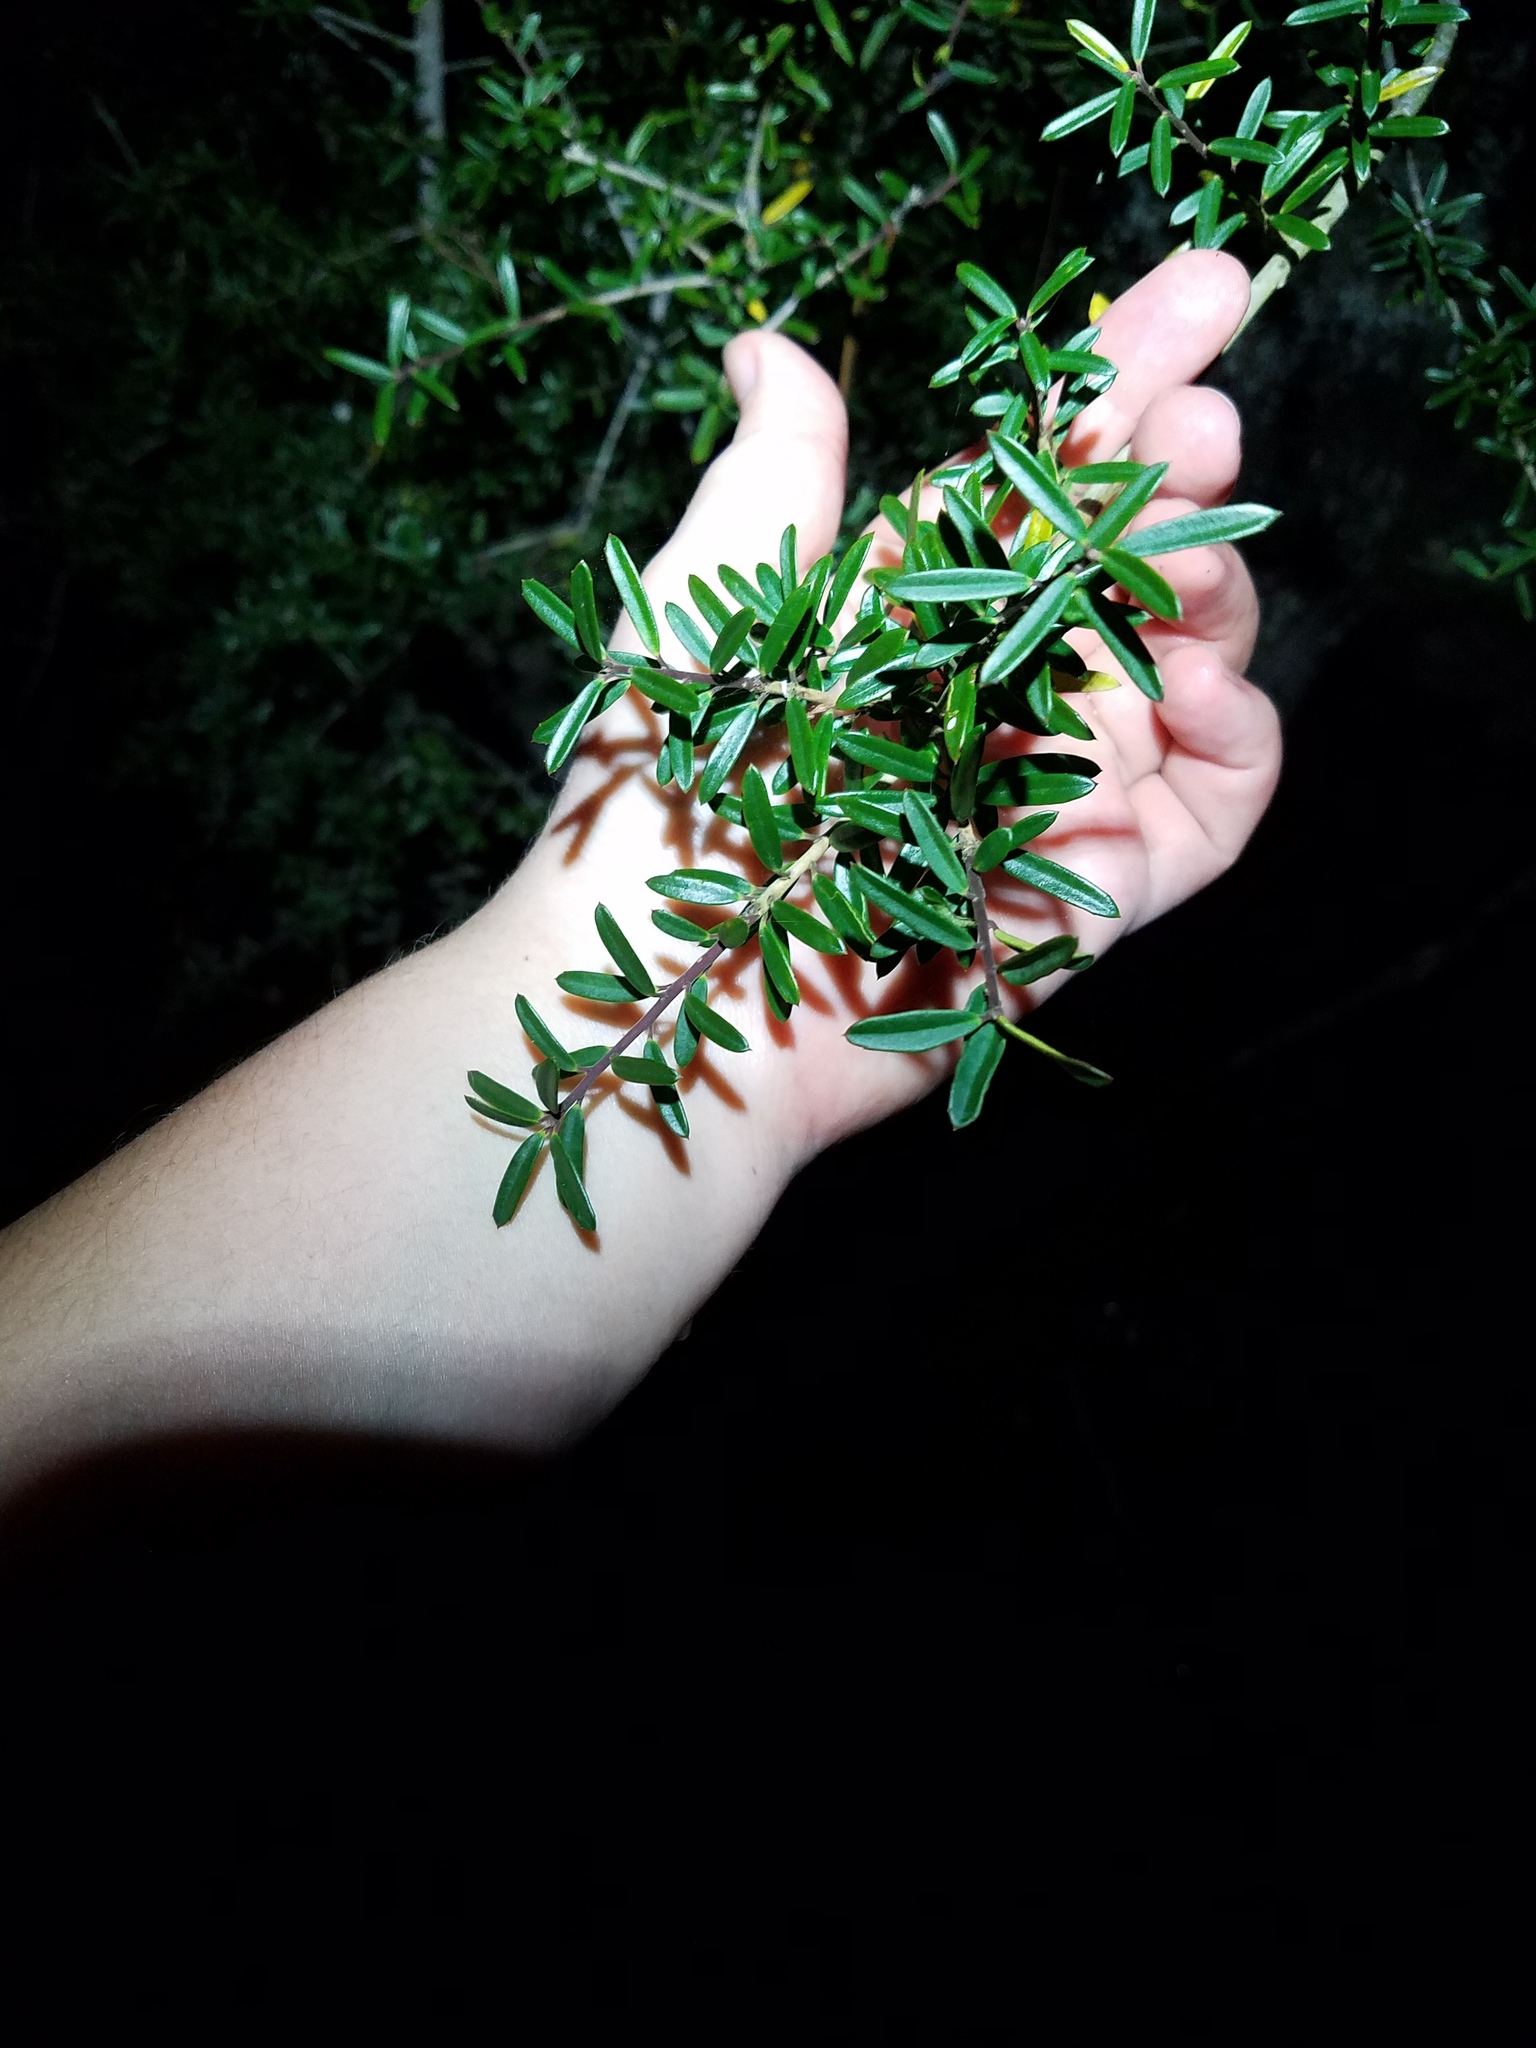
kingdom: Plantae
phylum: Tracheophyta
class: Magnoliopsida
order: Aquifoliales
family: Aquifoliaceae
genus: Ilex
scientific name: Ilex myrtifolia
